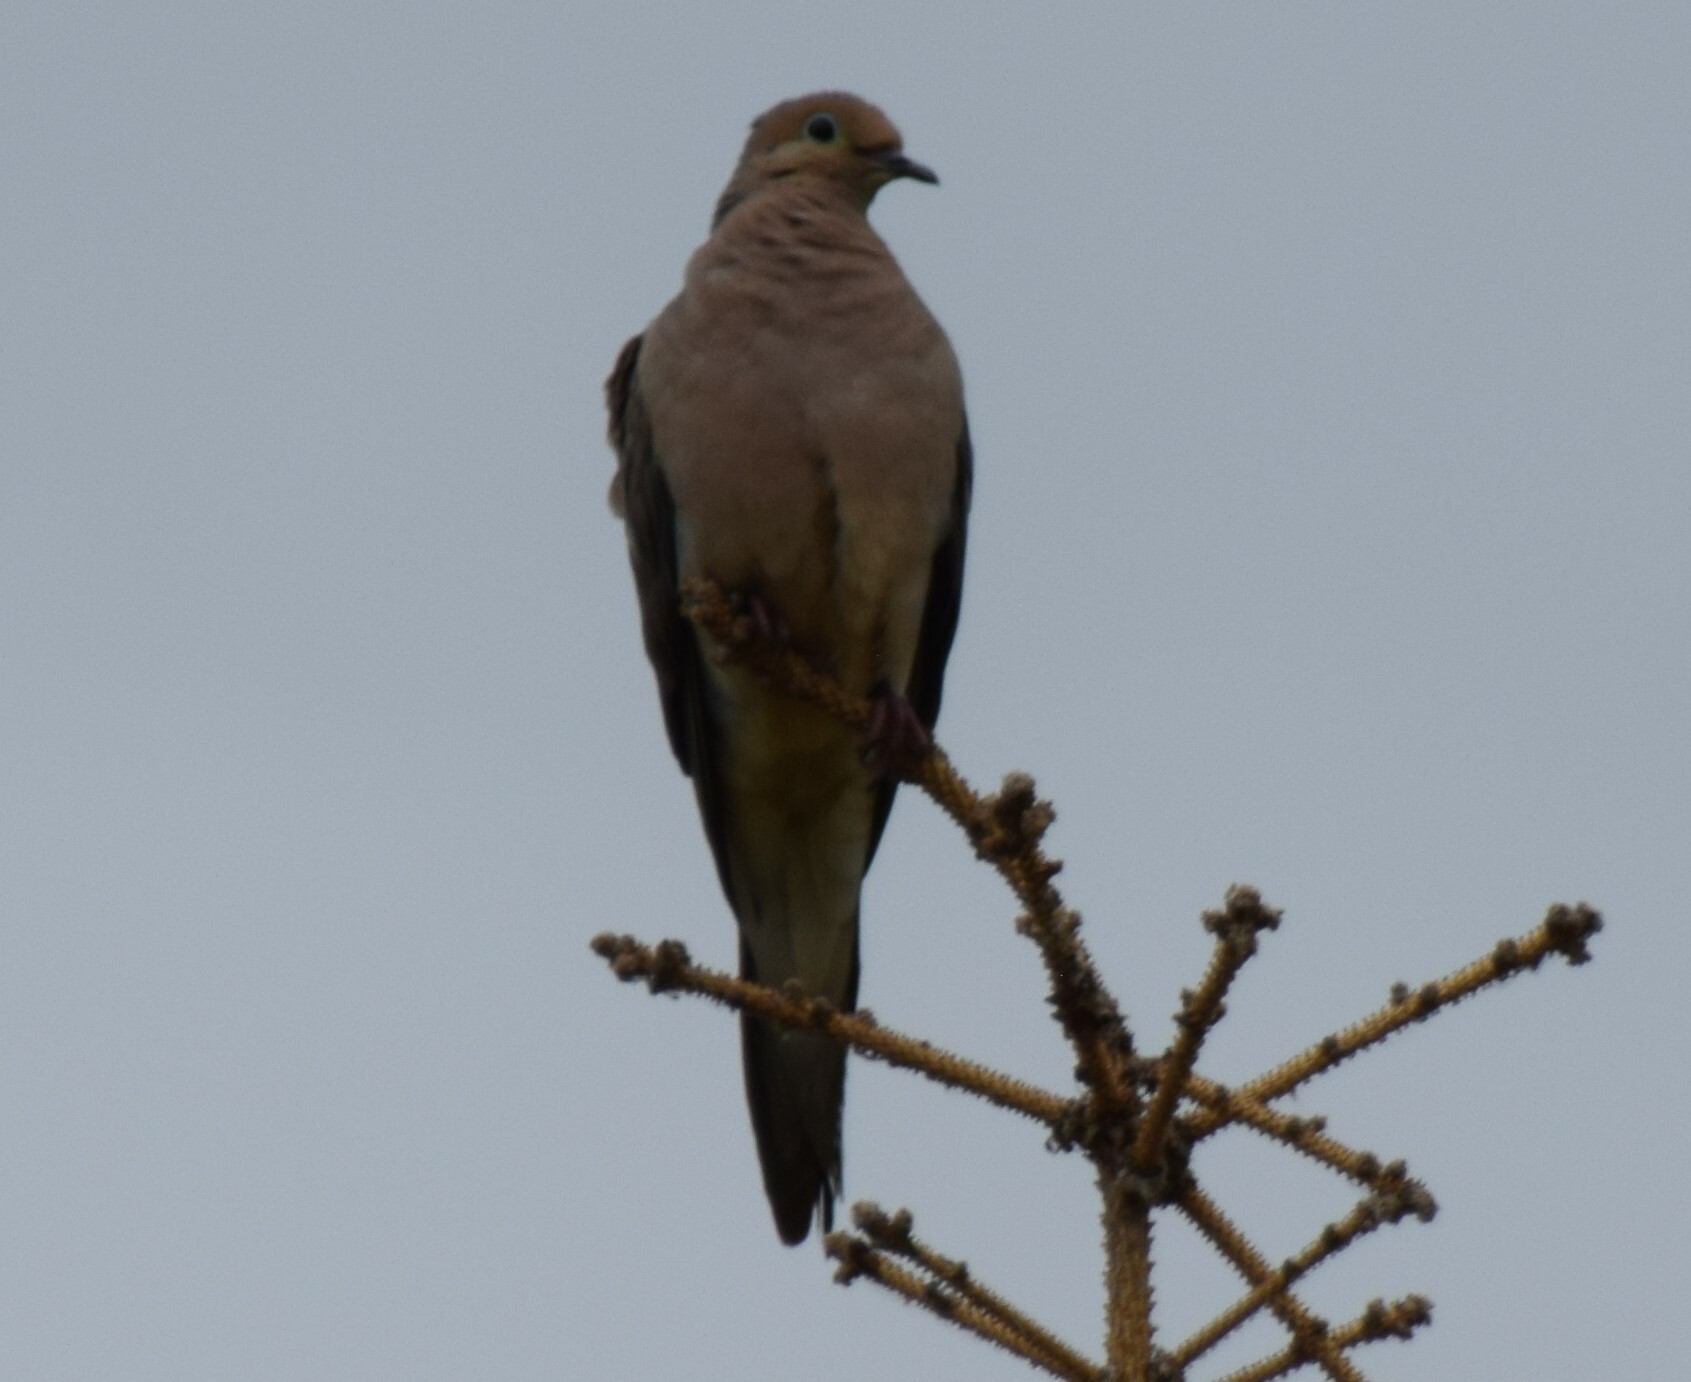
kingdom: Animalia
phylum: Chordata
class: Aves
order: Columbiformes
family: Columbidae
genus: Zenaida
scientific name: Zenaida macroura
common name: Mourning dove
